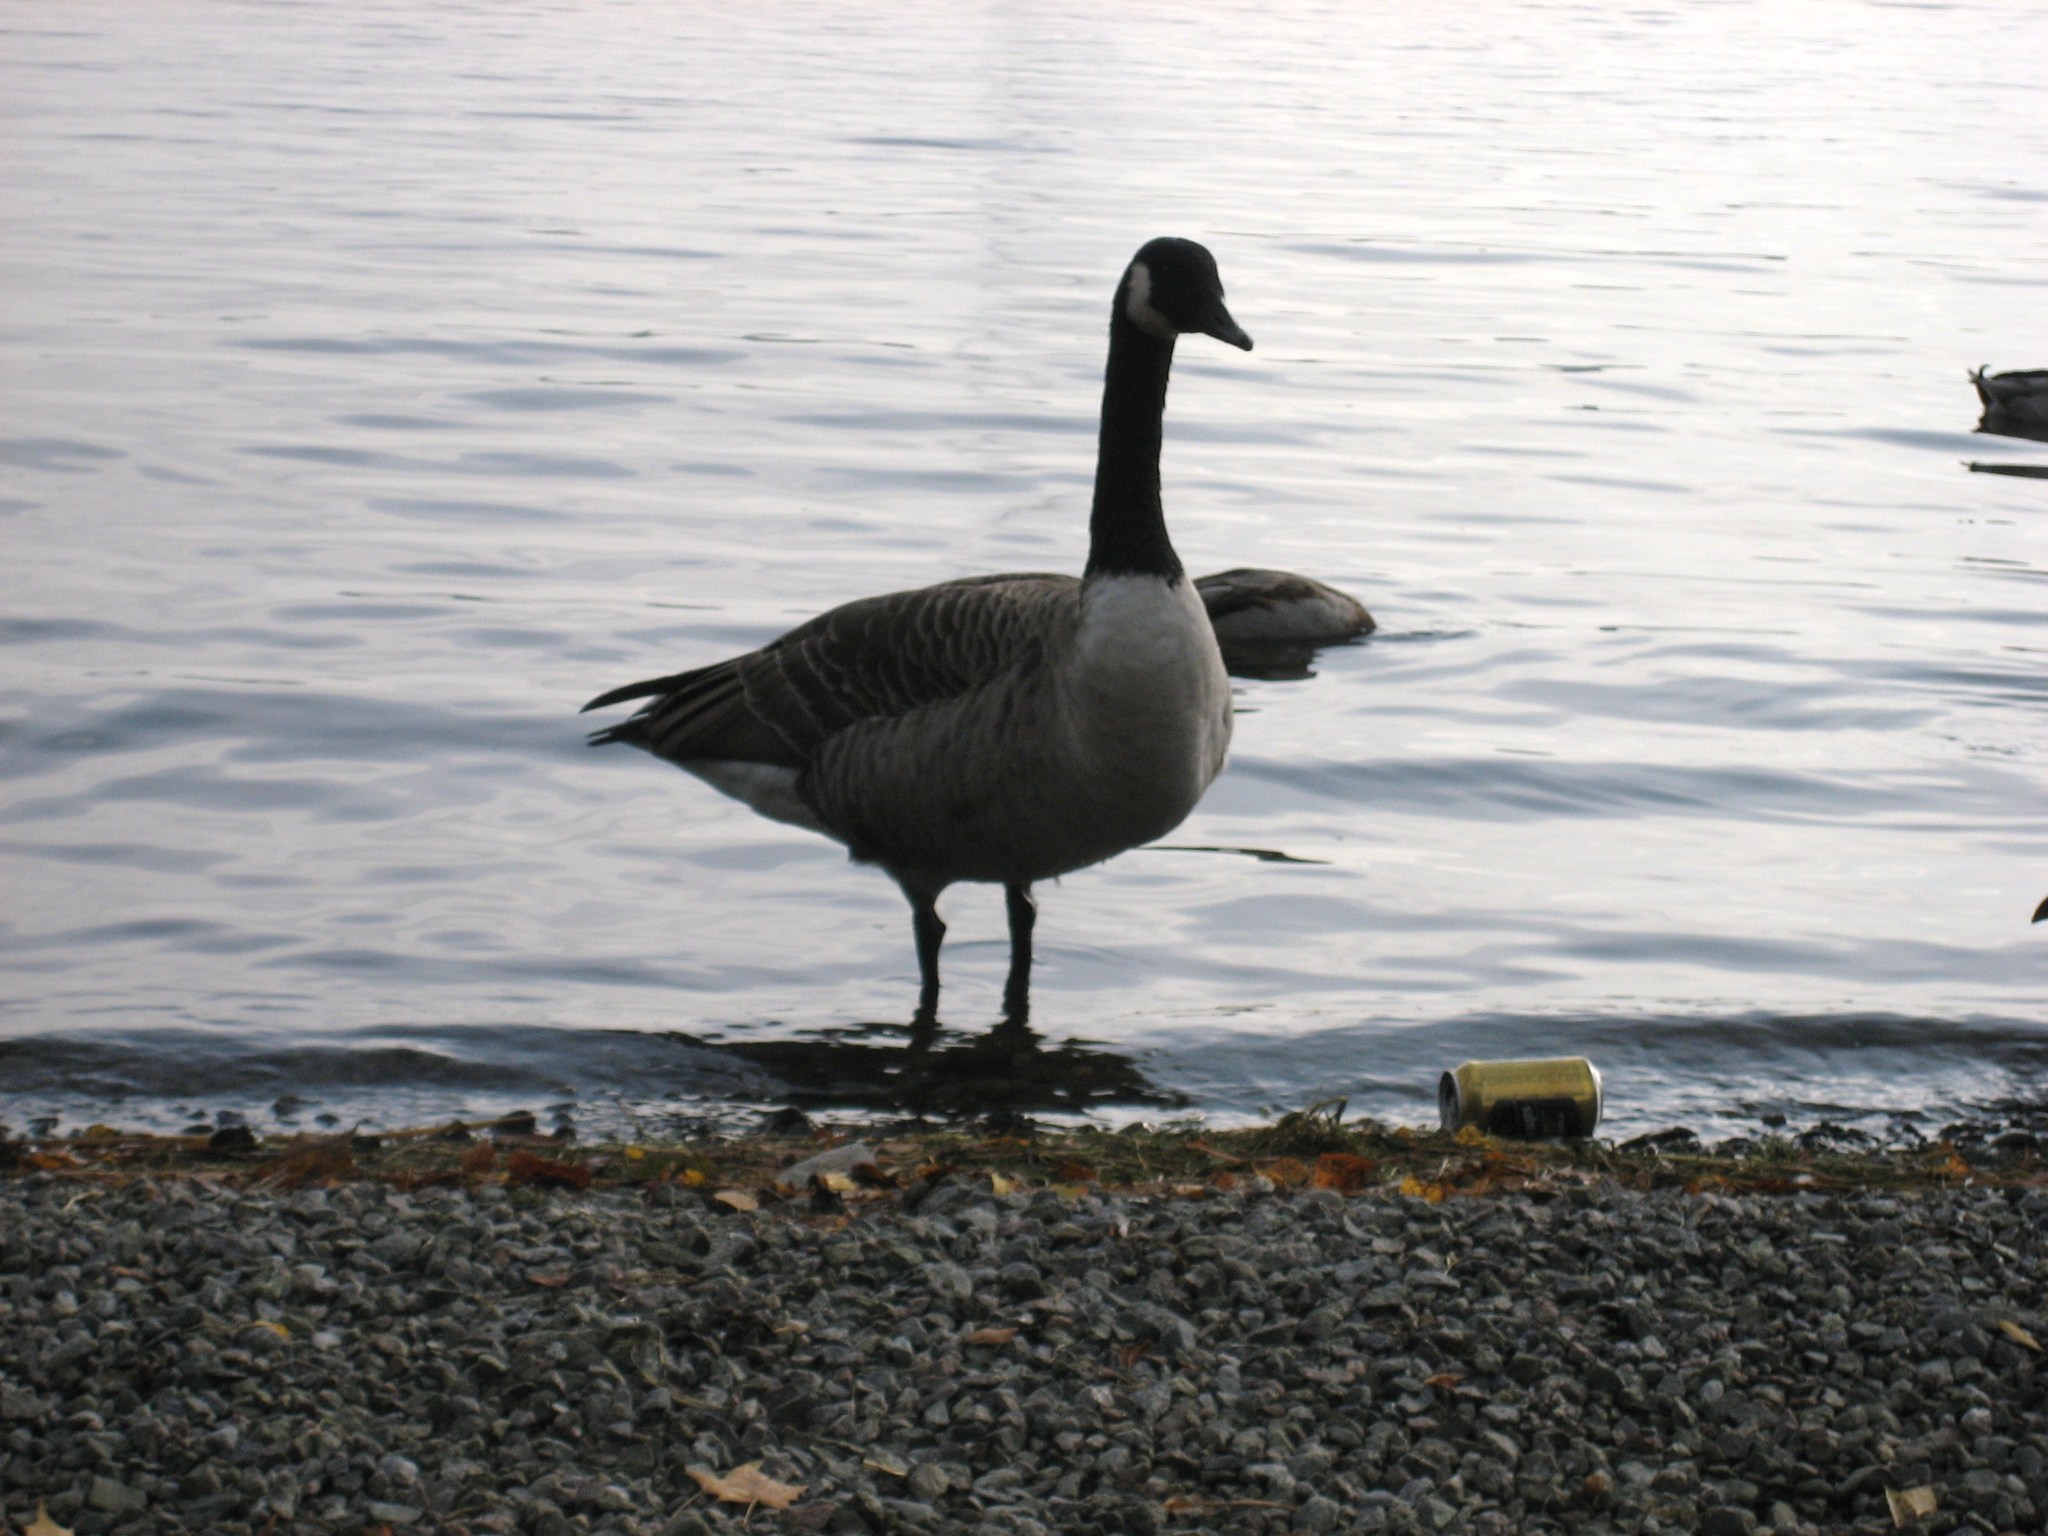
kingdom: Animalia
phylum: Chordata
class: Aves
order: Anseriformes
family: Anatidae
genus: Branta
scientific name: Branta canadensis
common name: Canada goose
